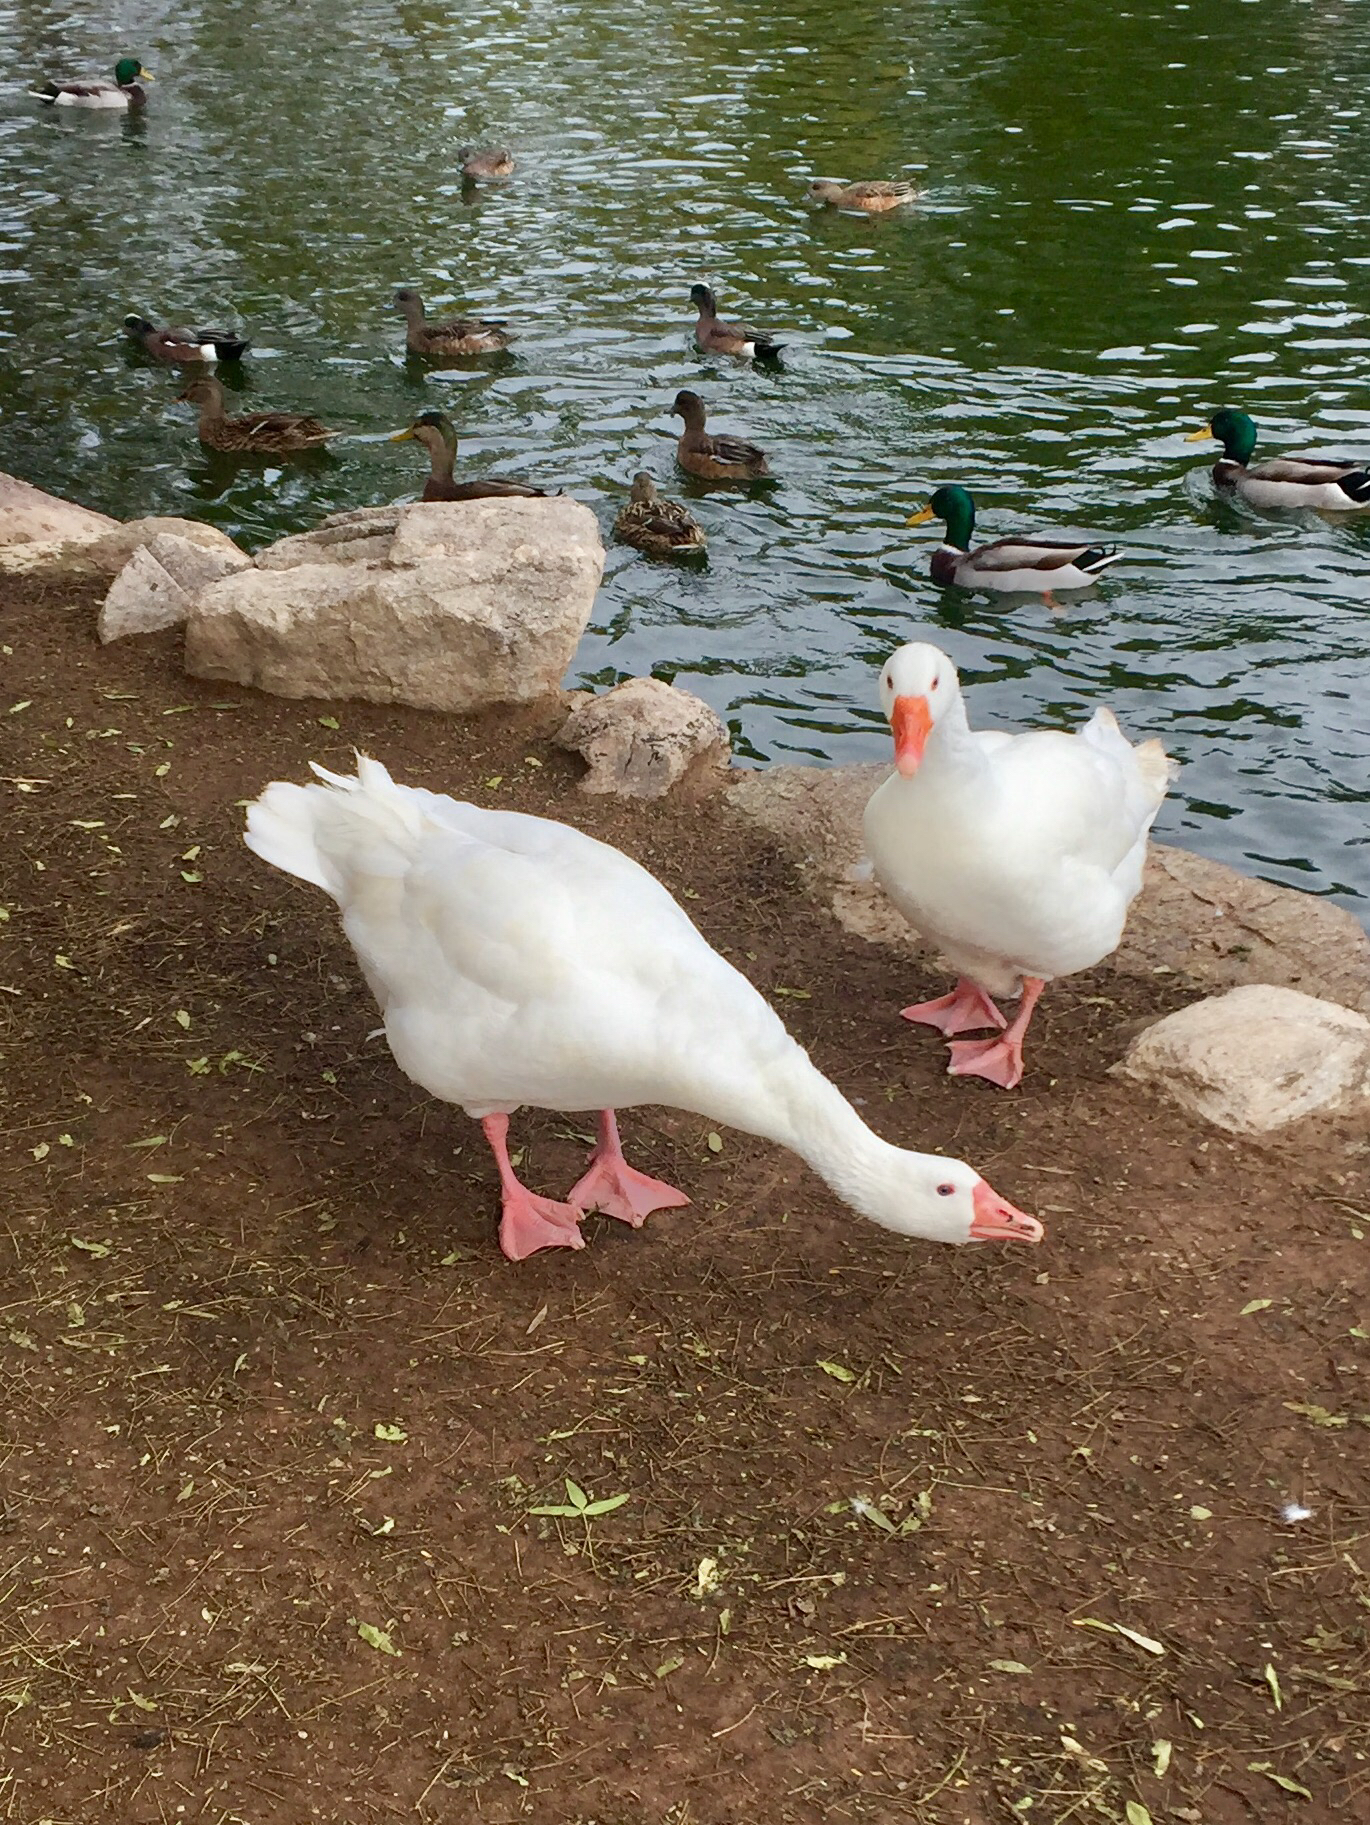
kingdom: Animalia
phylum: Chordata
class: Aves
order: Anseriformes
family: Anatidae
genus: Anser
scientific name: Anser anser
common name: Greylag goose
